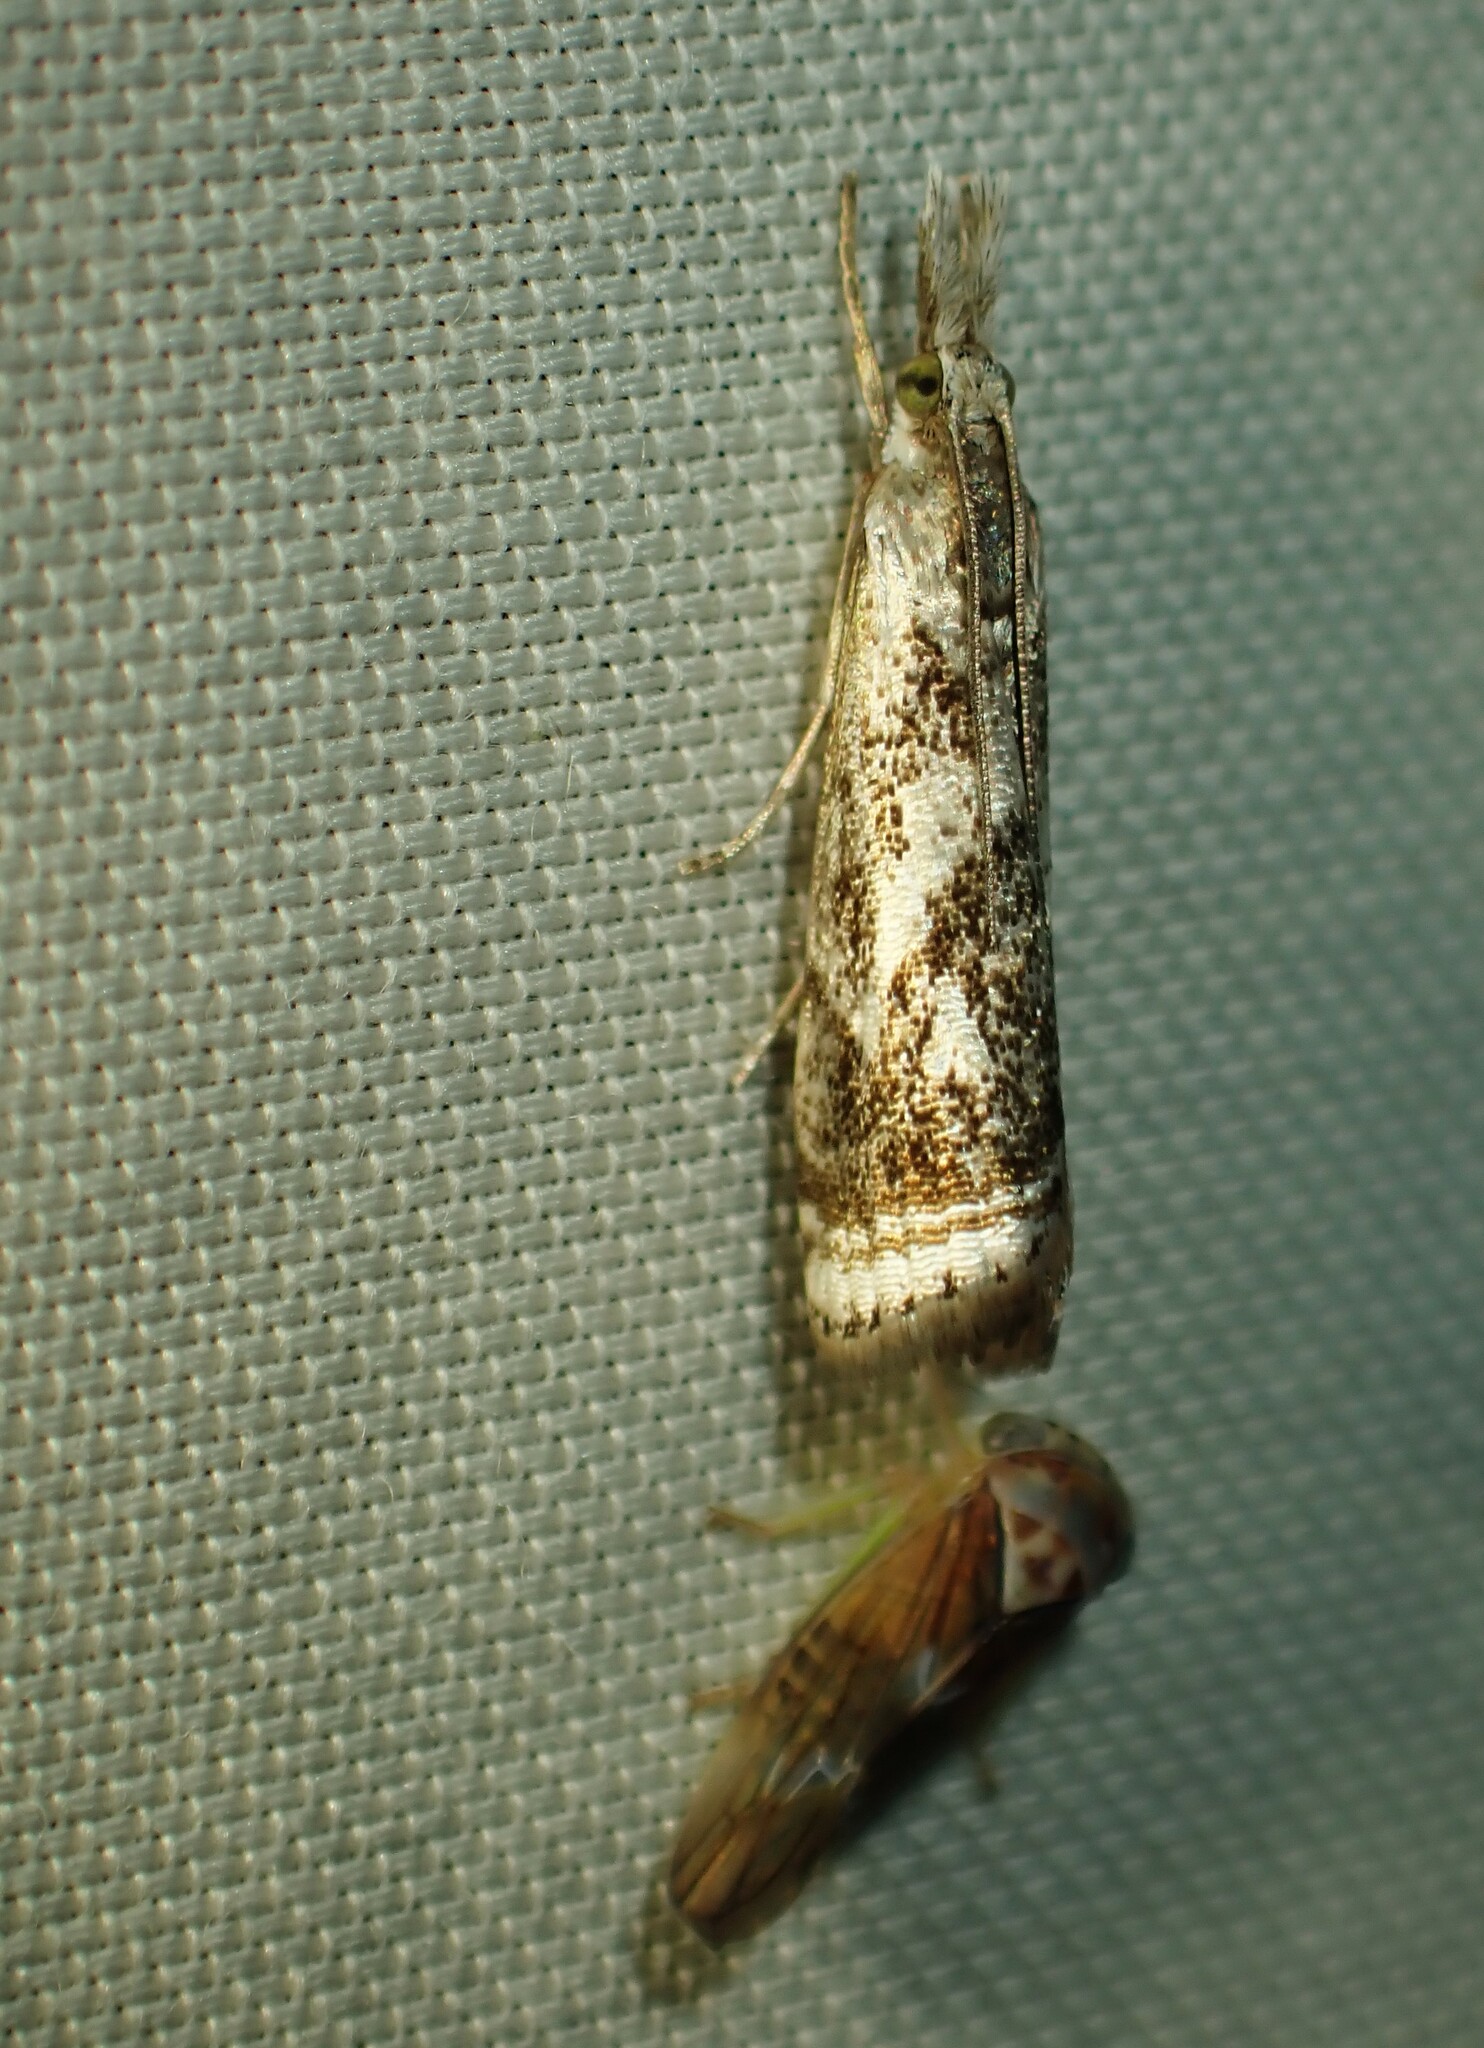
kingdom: Animalia
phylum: Arthropoda
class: Insecta
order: Lepidoptera
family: Crambidae
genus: Microcrambus
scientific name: Microcrambus elegans
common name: Elegant grass-veneer
